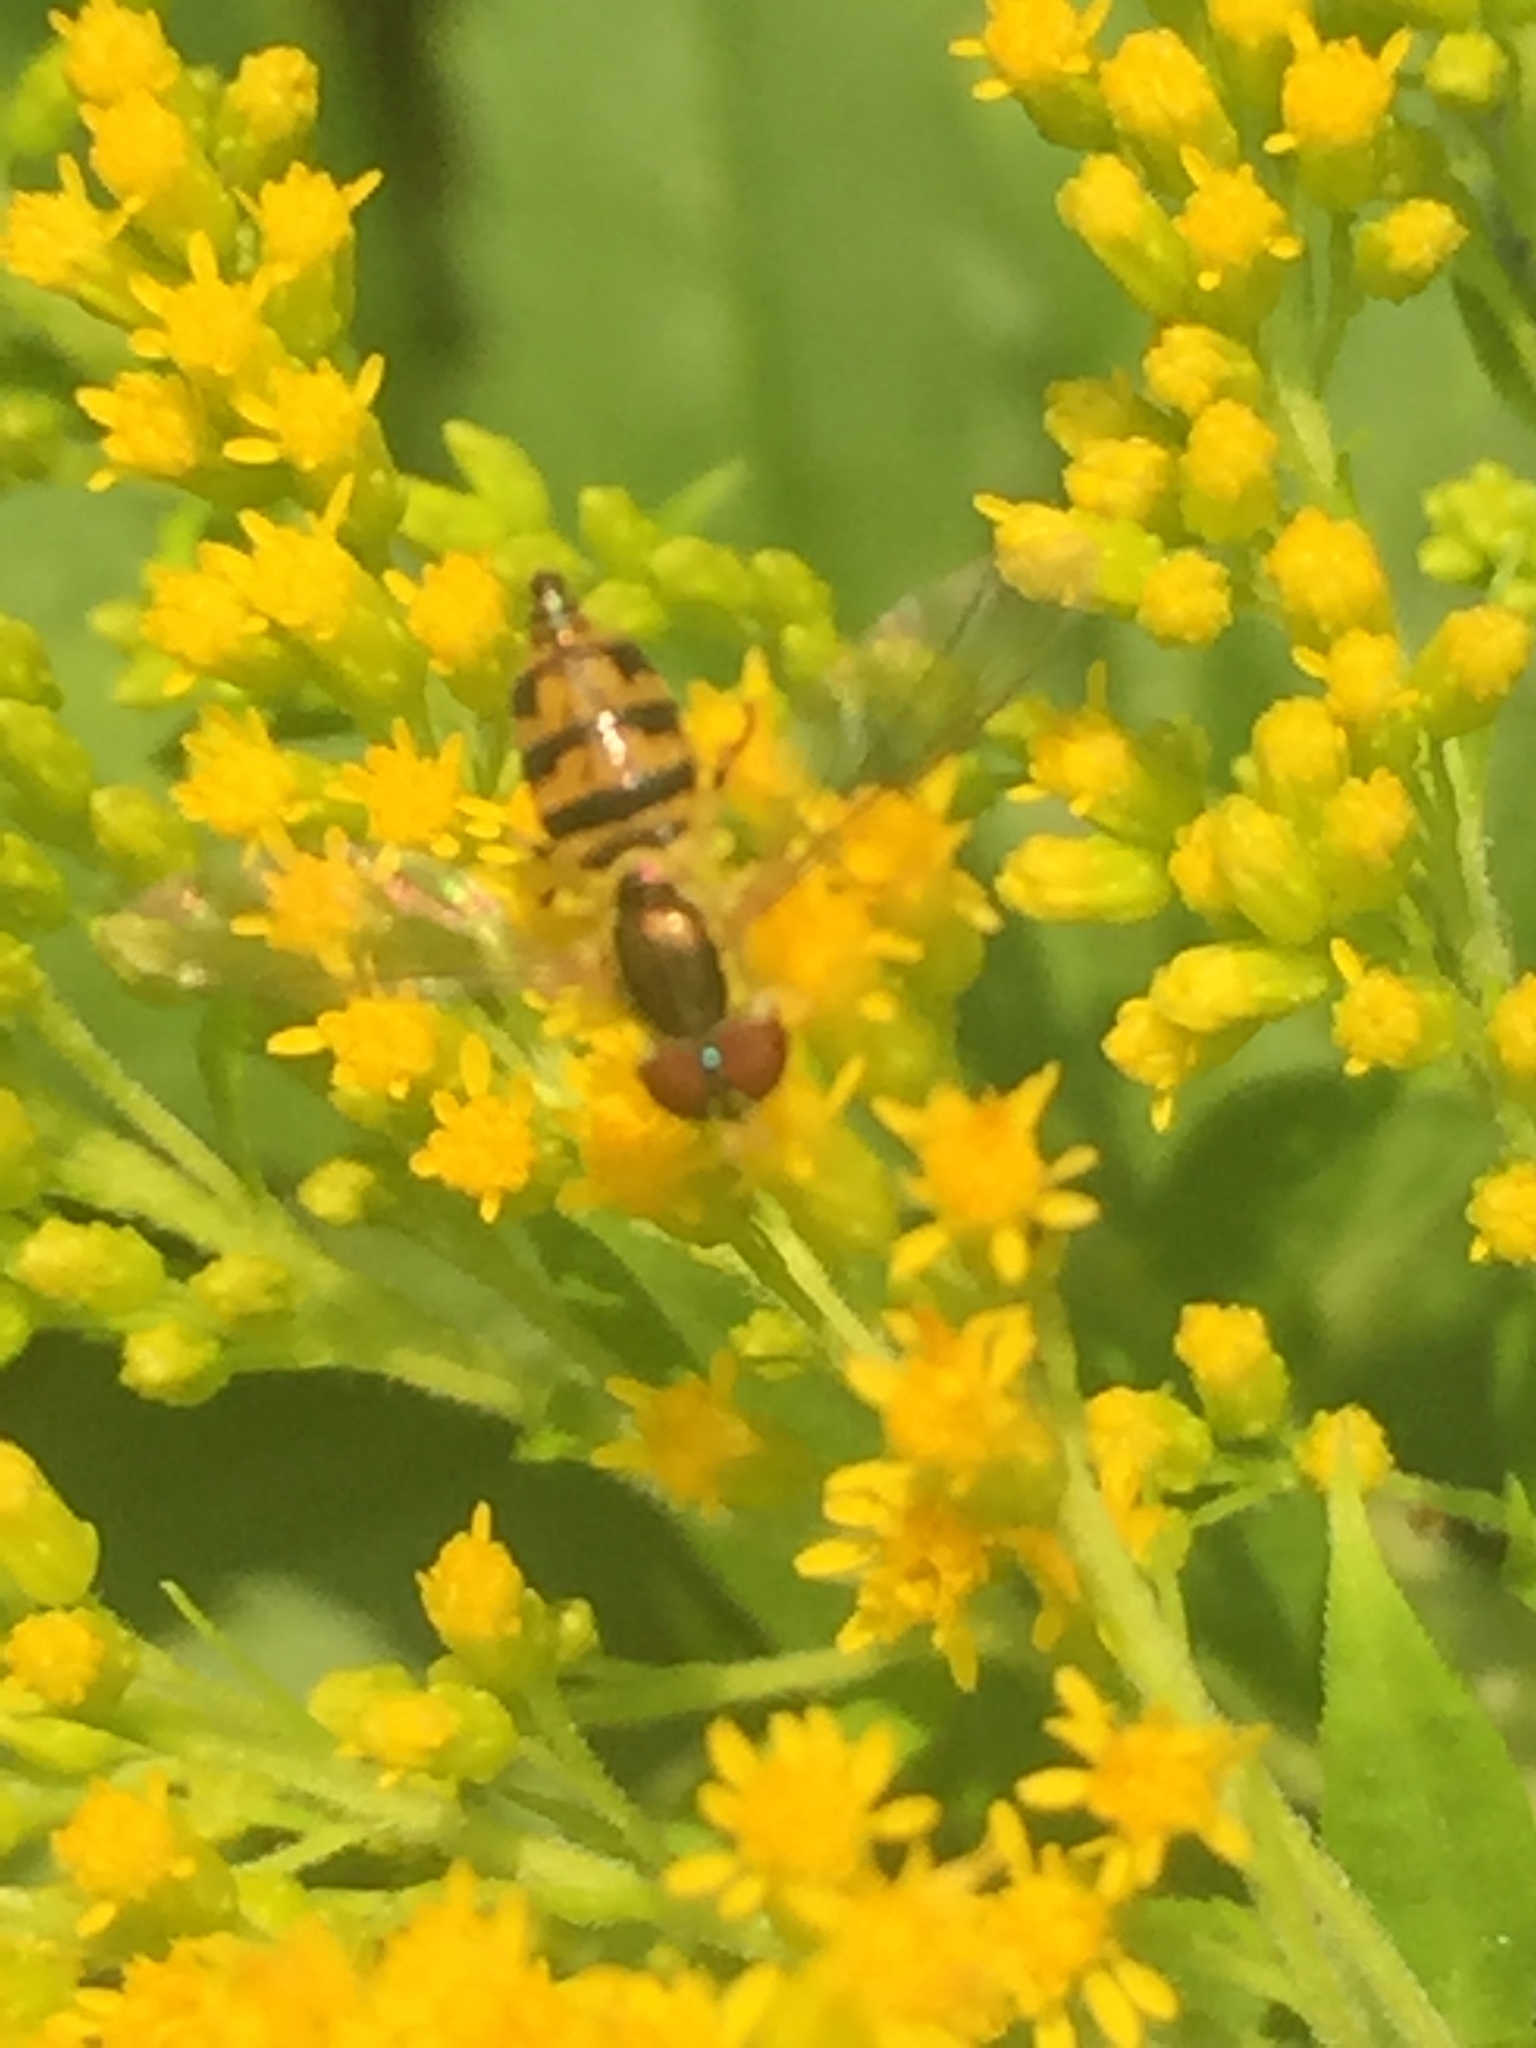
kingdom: Animalia
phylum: Arthropoda
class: Insecta
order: Diptera
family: Syrphidae
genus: Toxomerus
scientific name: Toxomerus geminatus
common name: Eastern calligrapher
